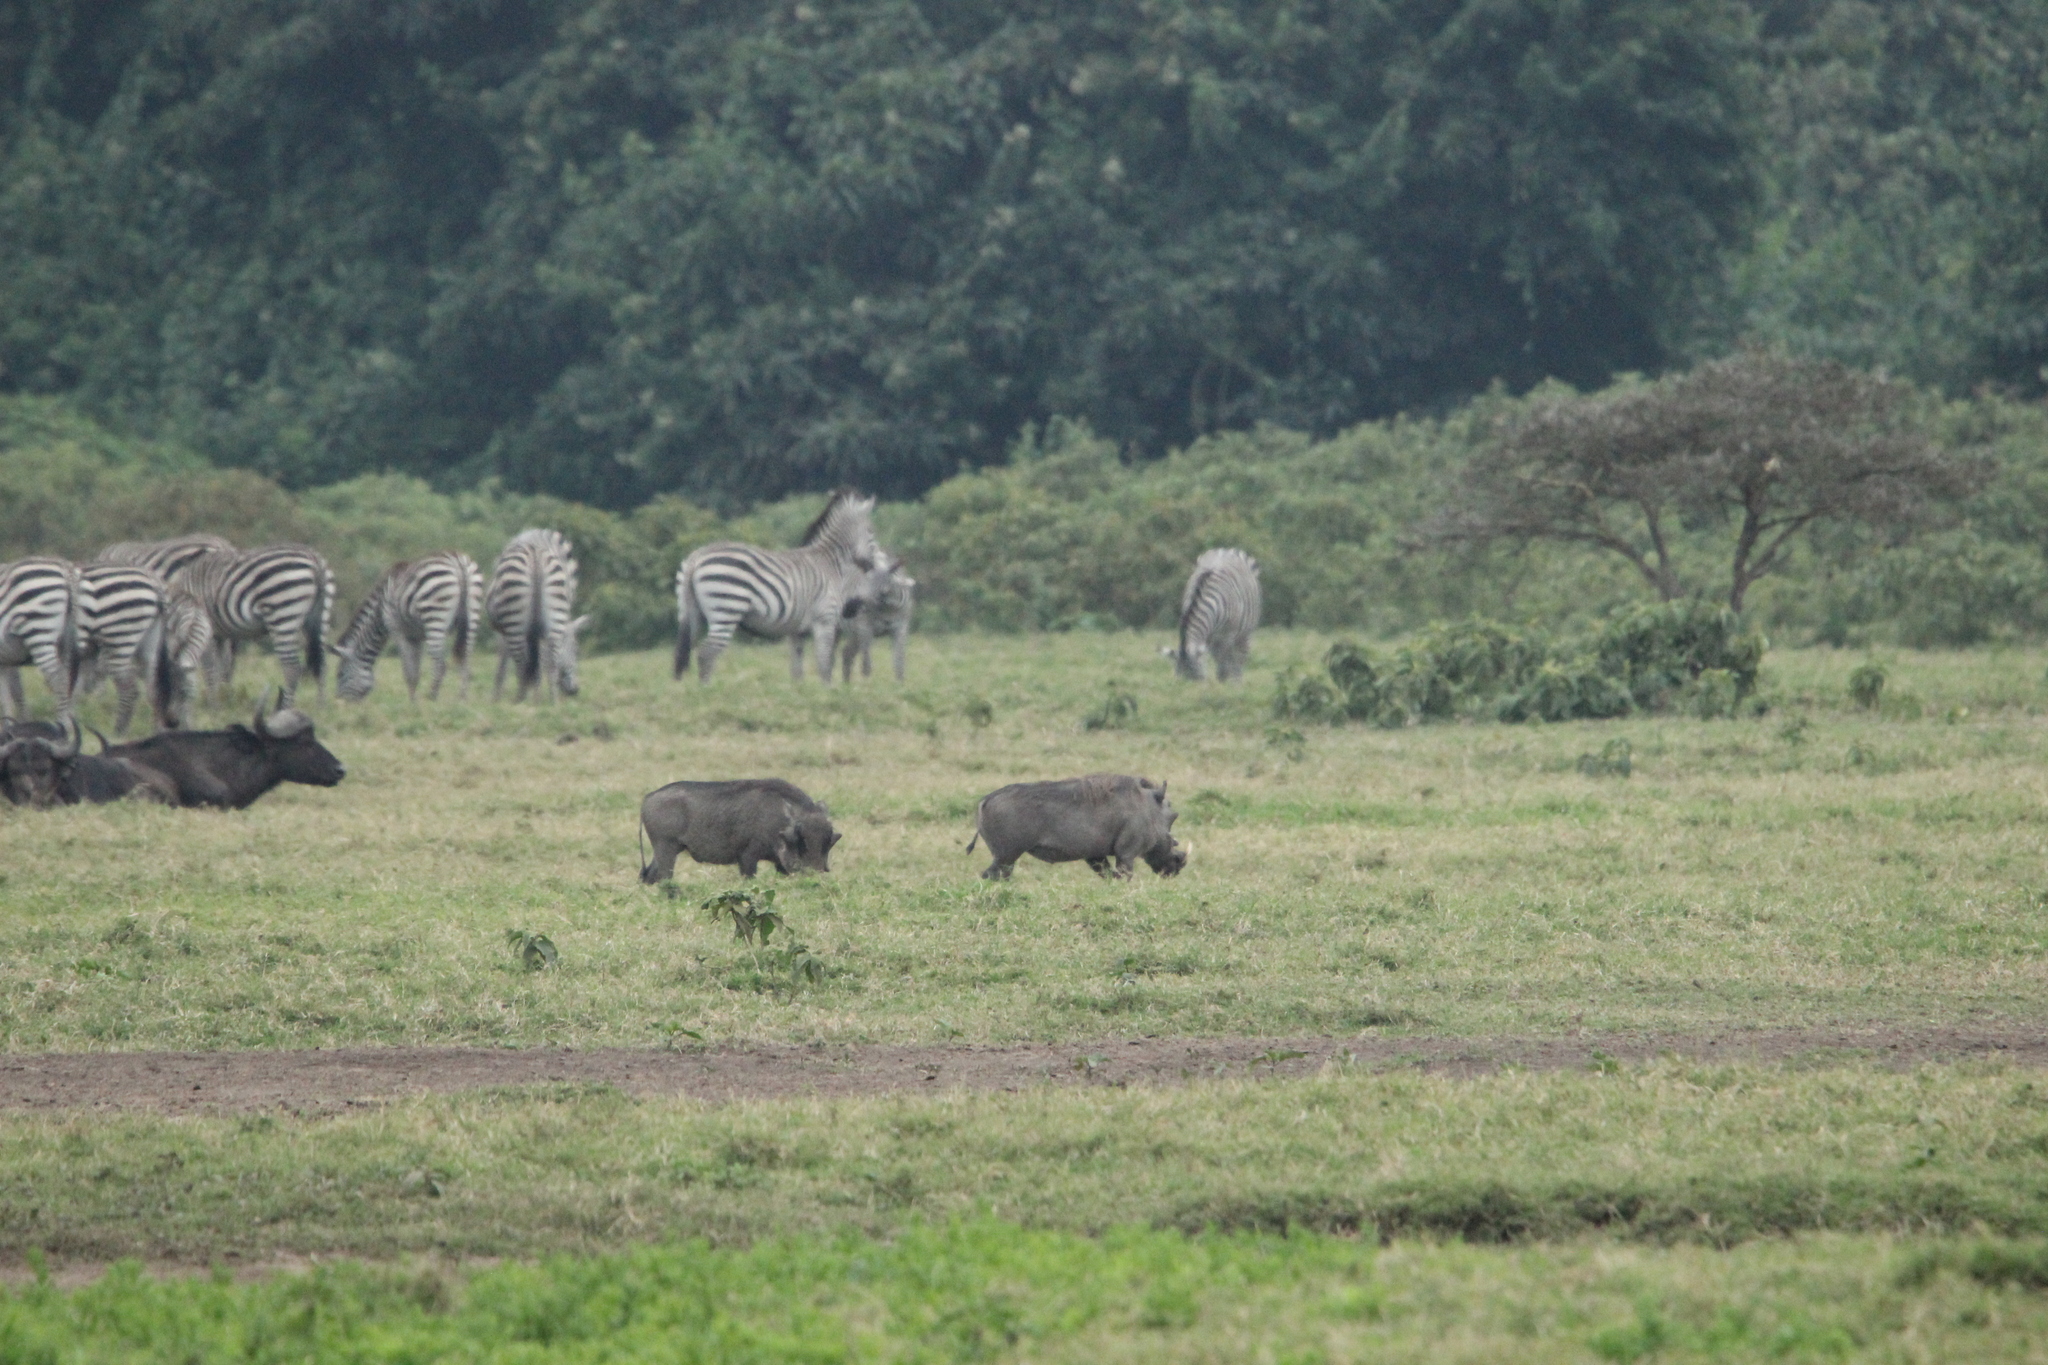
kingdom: Animalia
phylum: Chordata
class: Mammalia
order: Artiodactyla
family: Suidae
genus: Phacochoerus
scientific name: Phacochoerus africanus
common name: Common warthog
